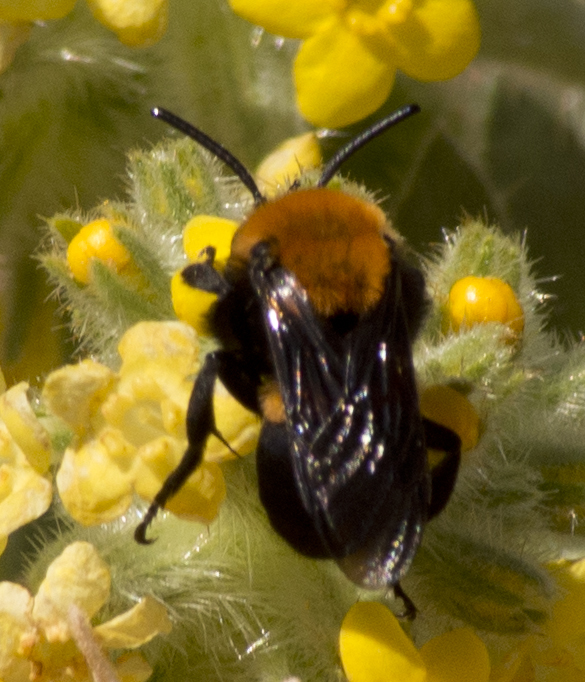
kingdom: Animalia
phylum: Arthropoda
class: Insecta
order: Hymenoptera
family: Apidae
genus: Melecta
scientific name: Melecta
